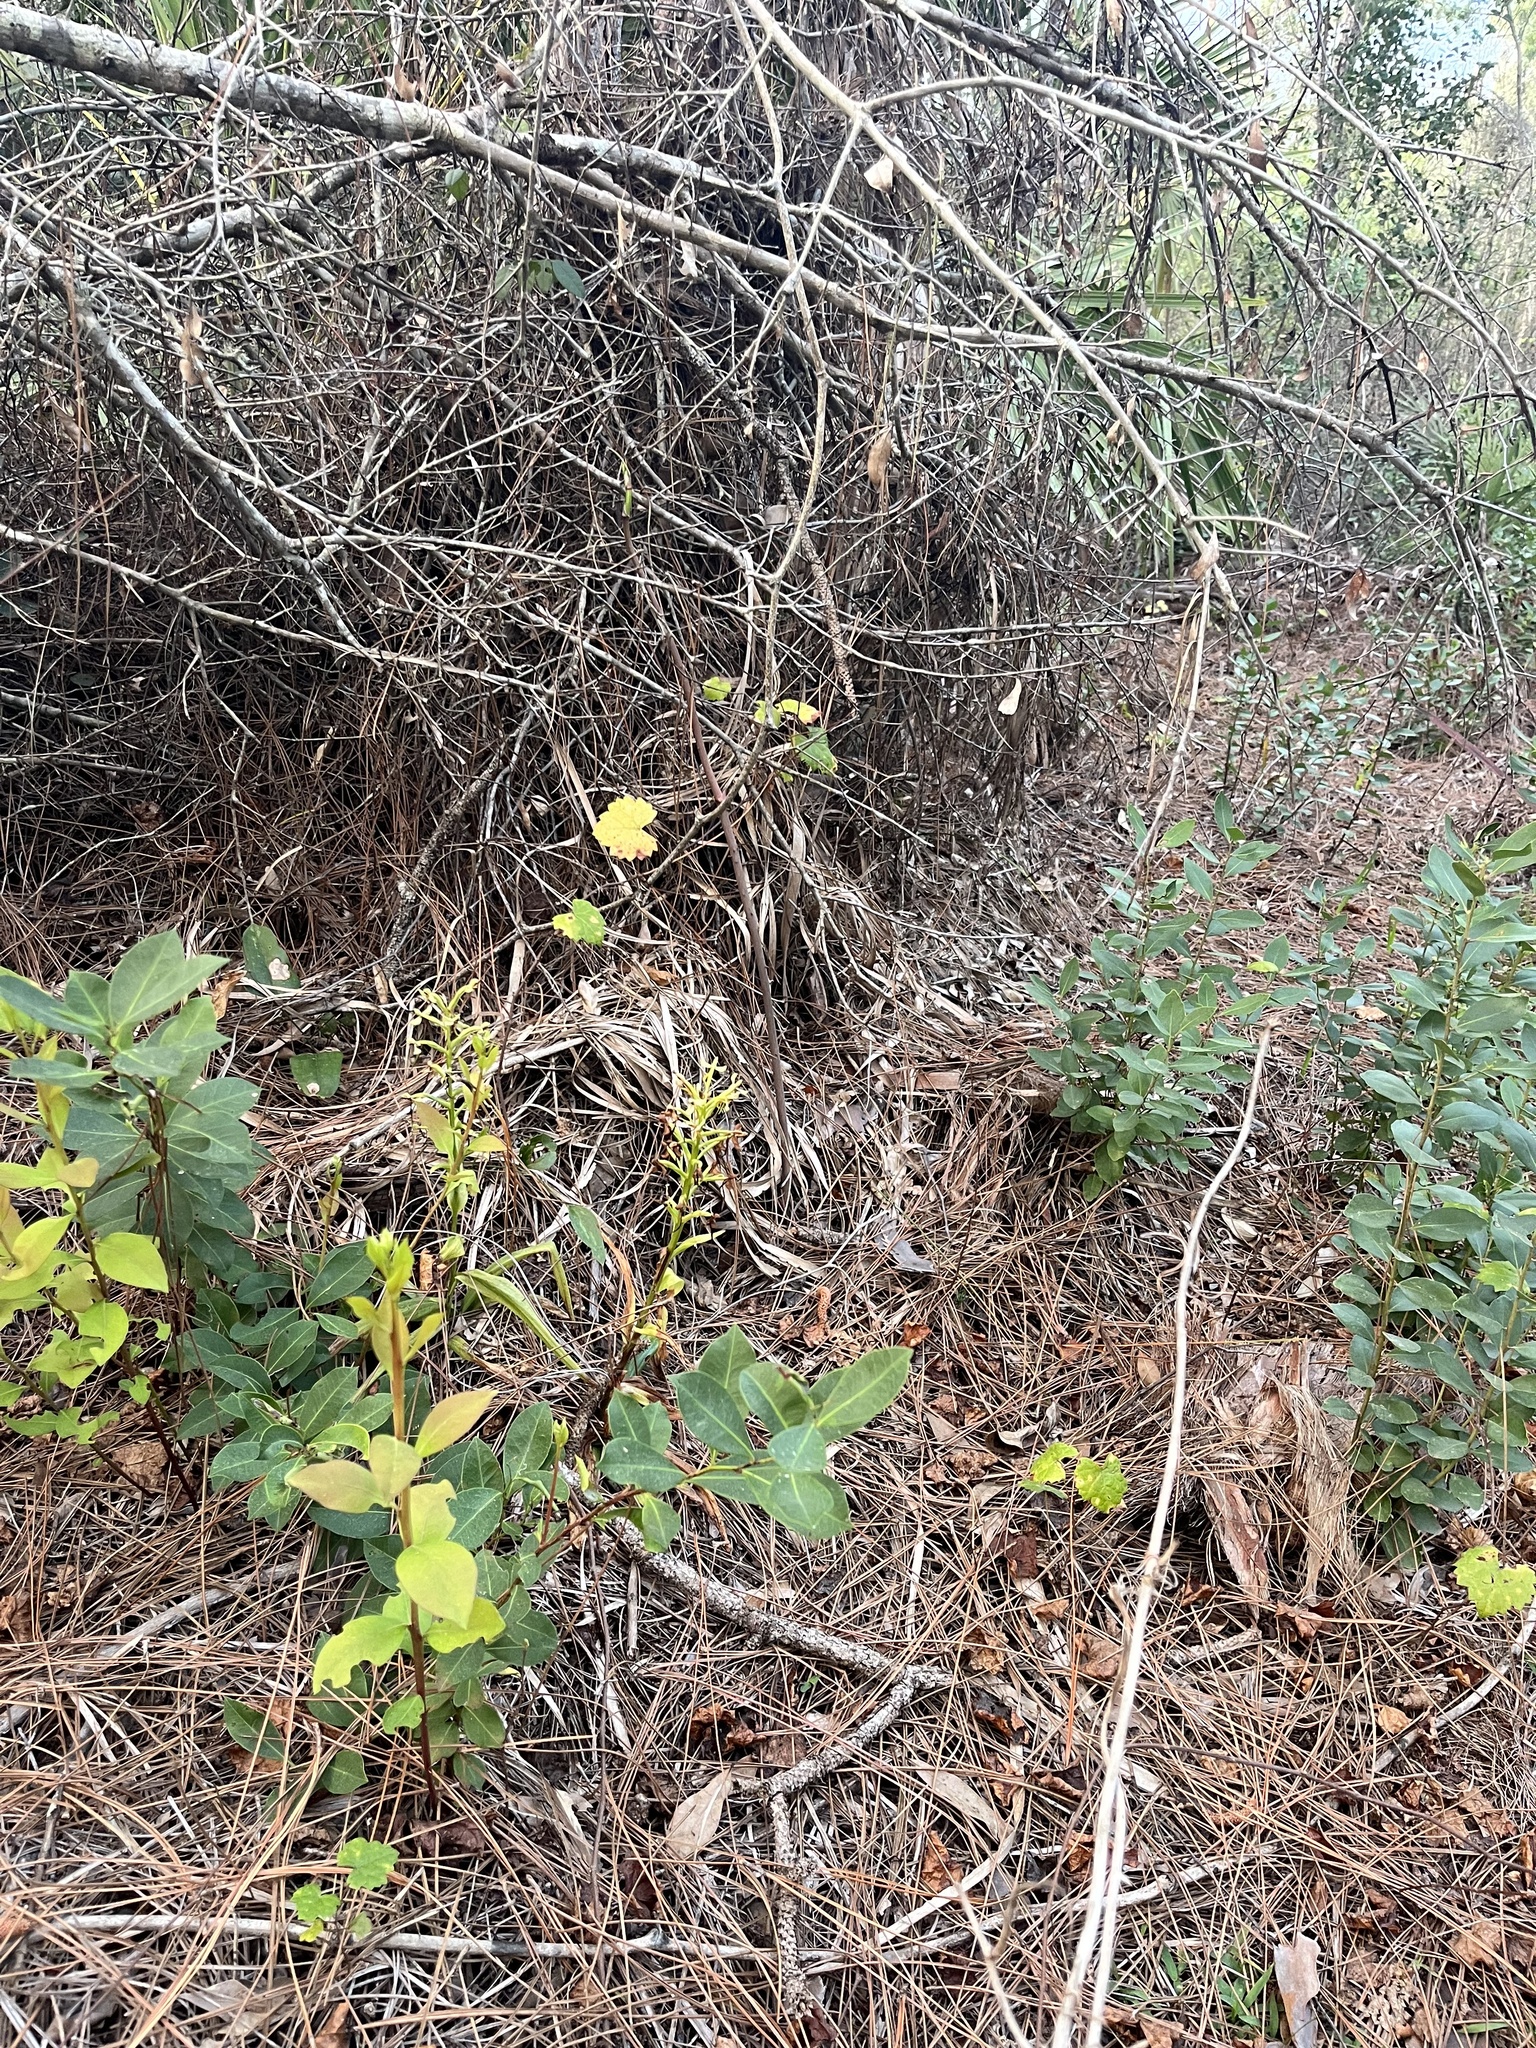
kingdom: Plantae
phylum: Tracheophyta
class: Liliopsida
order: Asparagales
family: Orchidaceae
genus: Habenaria
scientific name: Habenaria floribunda
